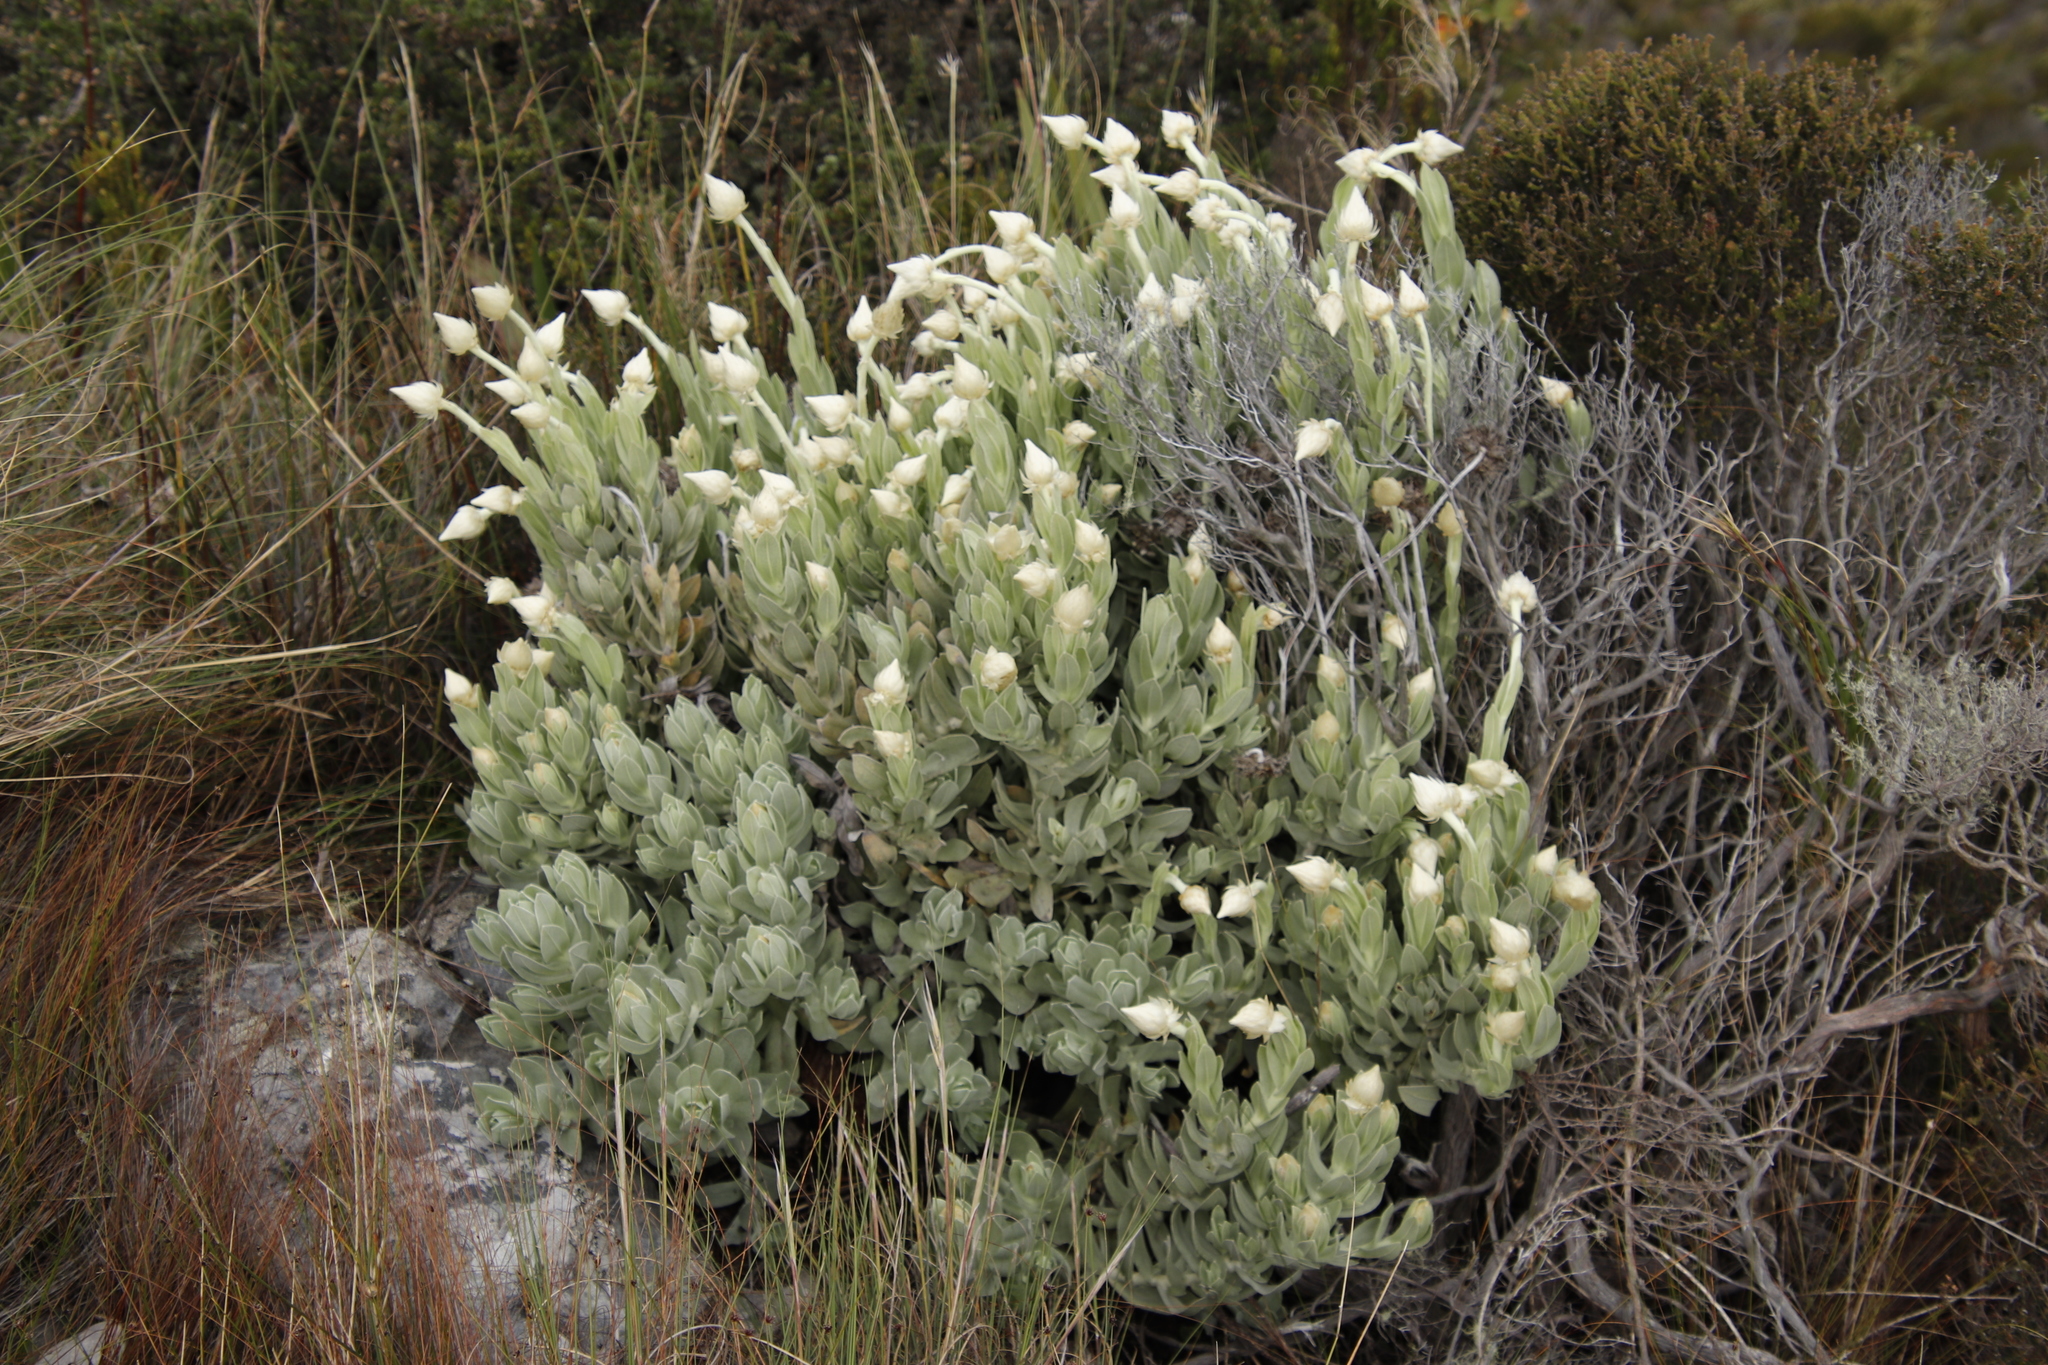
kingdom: Plantae
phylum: Tracheophyta
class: Magnoliopsida
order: Asterales
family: Asteraceae
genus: Syncarpha
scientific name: Syncarpha speciosissima
